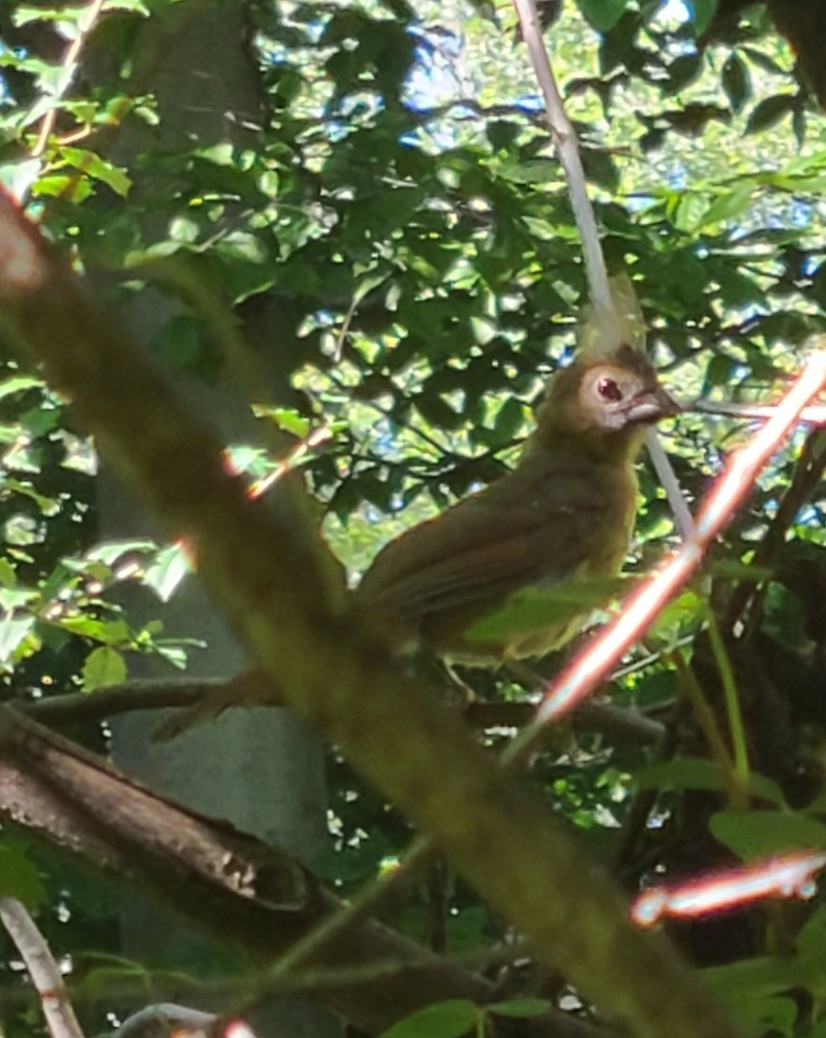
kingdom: Animalia
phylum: Chordata
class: Aves
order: Passeriformes
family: Cardinalidae
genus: Cardinalis
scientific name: Cardinalis cardinalis
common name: Northern cardinal
